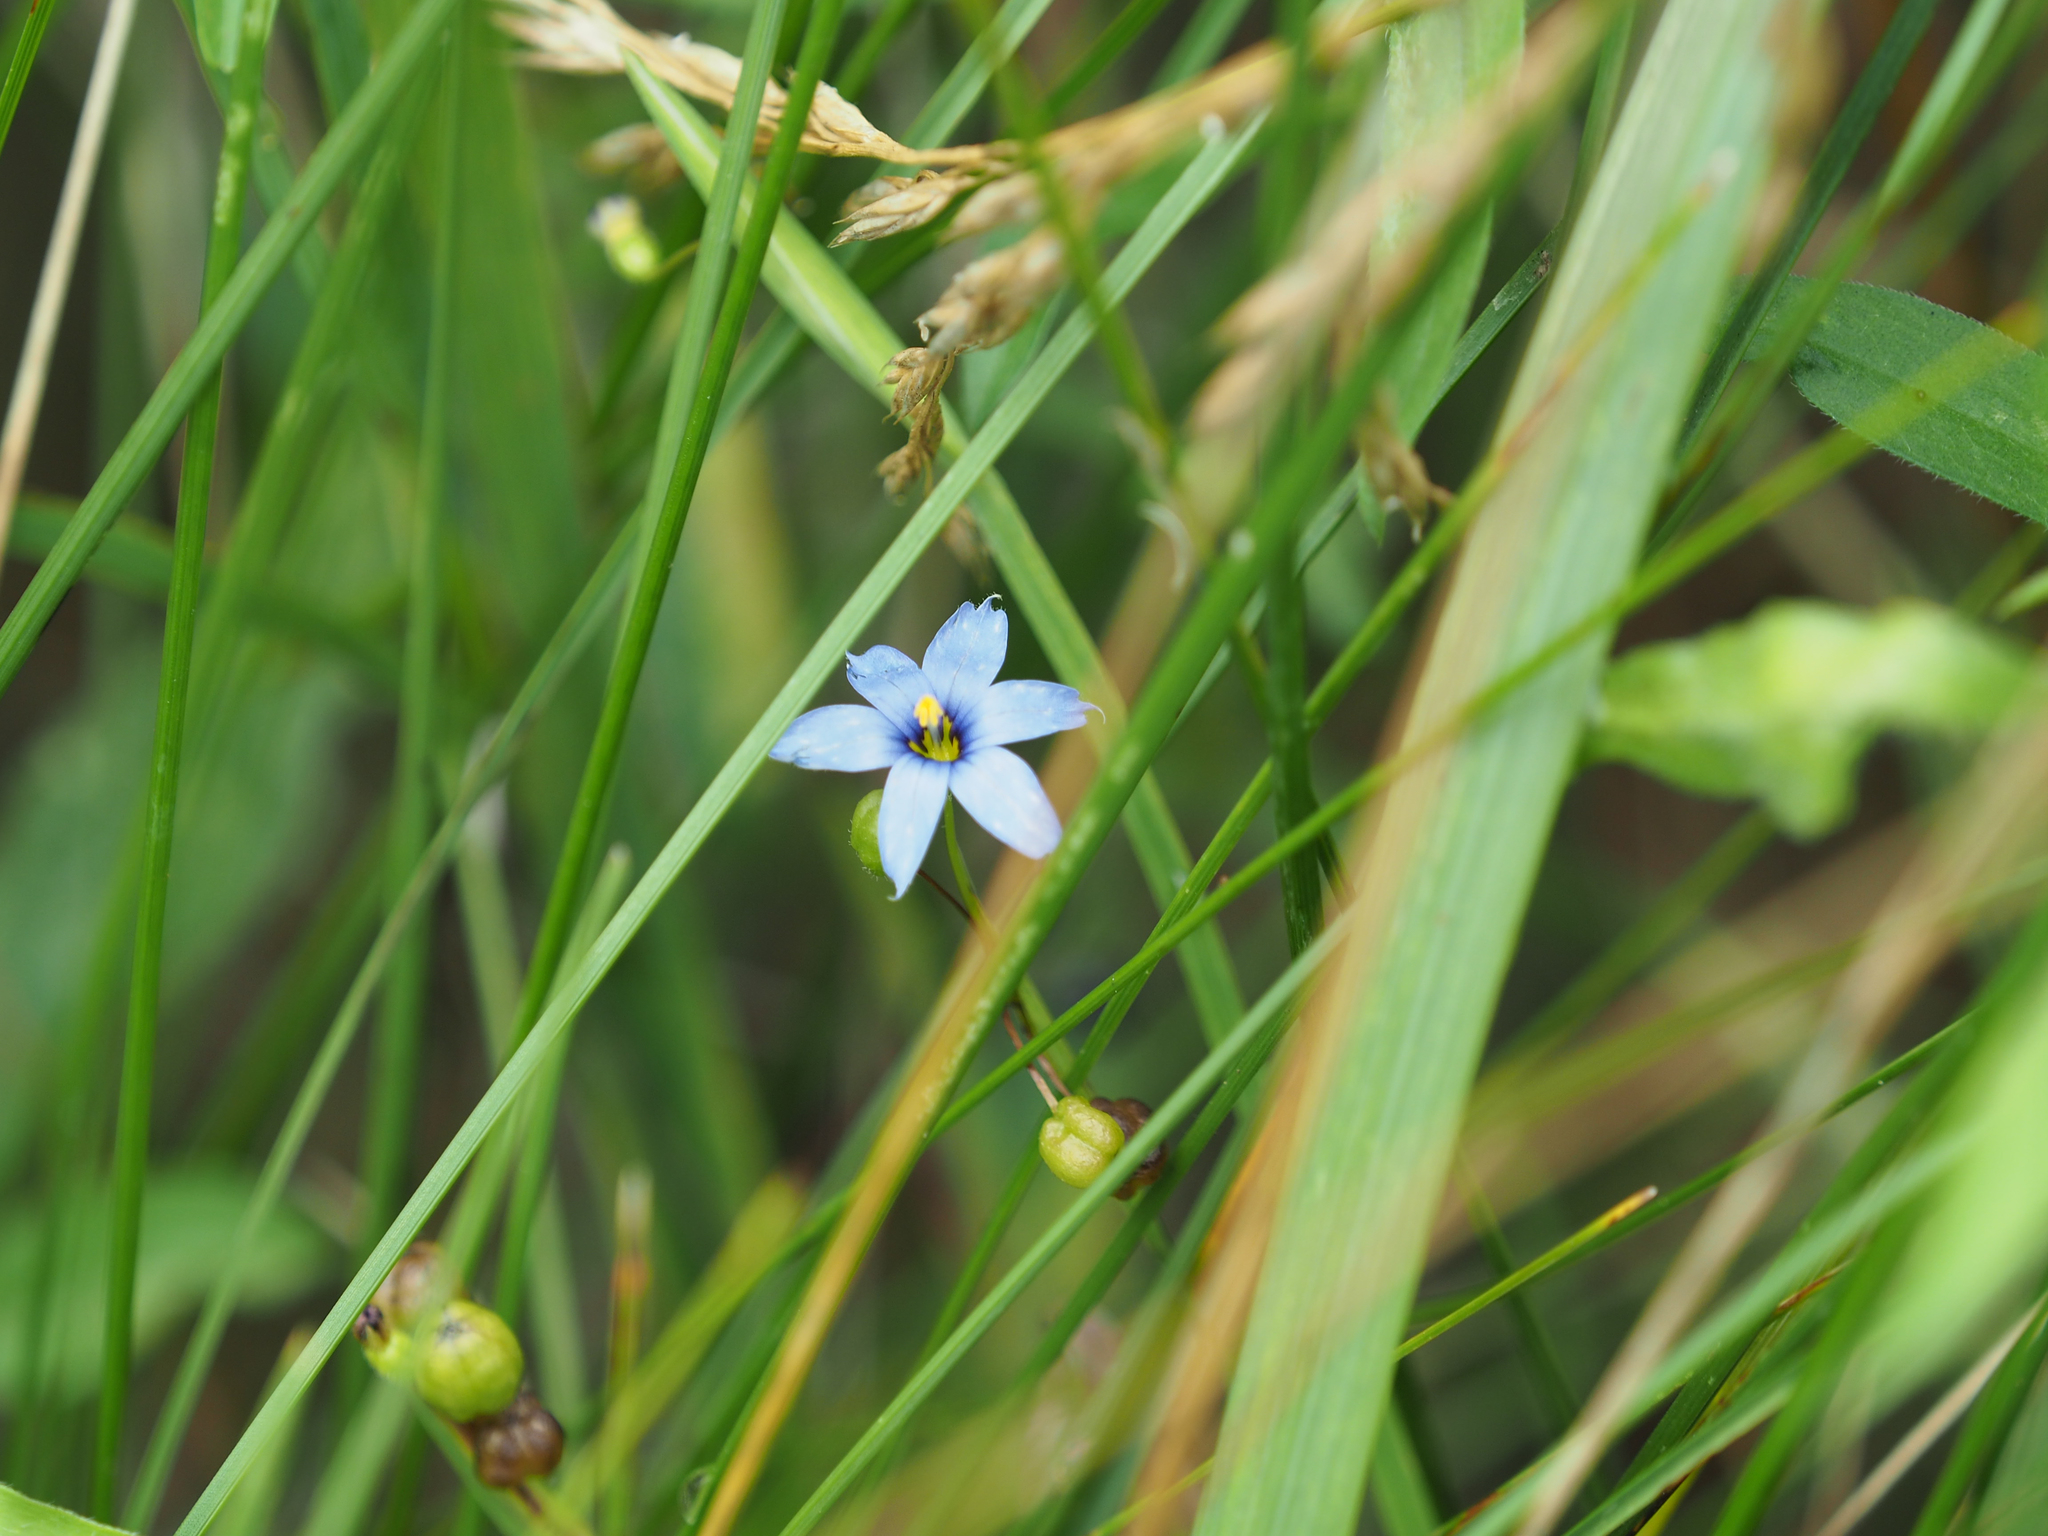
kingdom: Plantae
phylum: Tracheophyta
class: Liliopsida
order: Asparagales
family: Iridaceae
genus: Sisyrinchium
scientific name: Sisyrinchium atlanticum
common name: Eastern blue-eyed-grass
